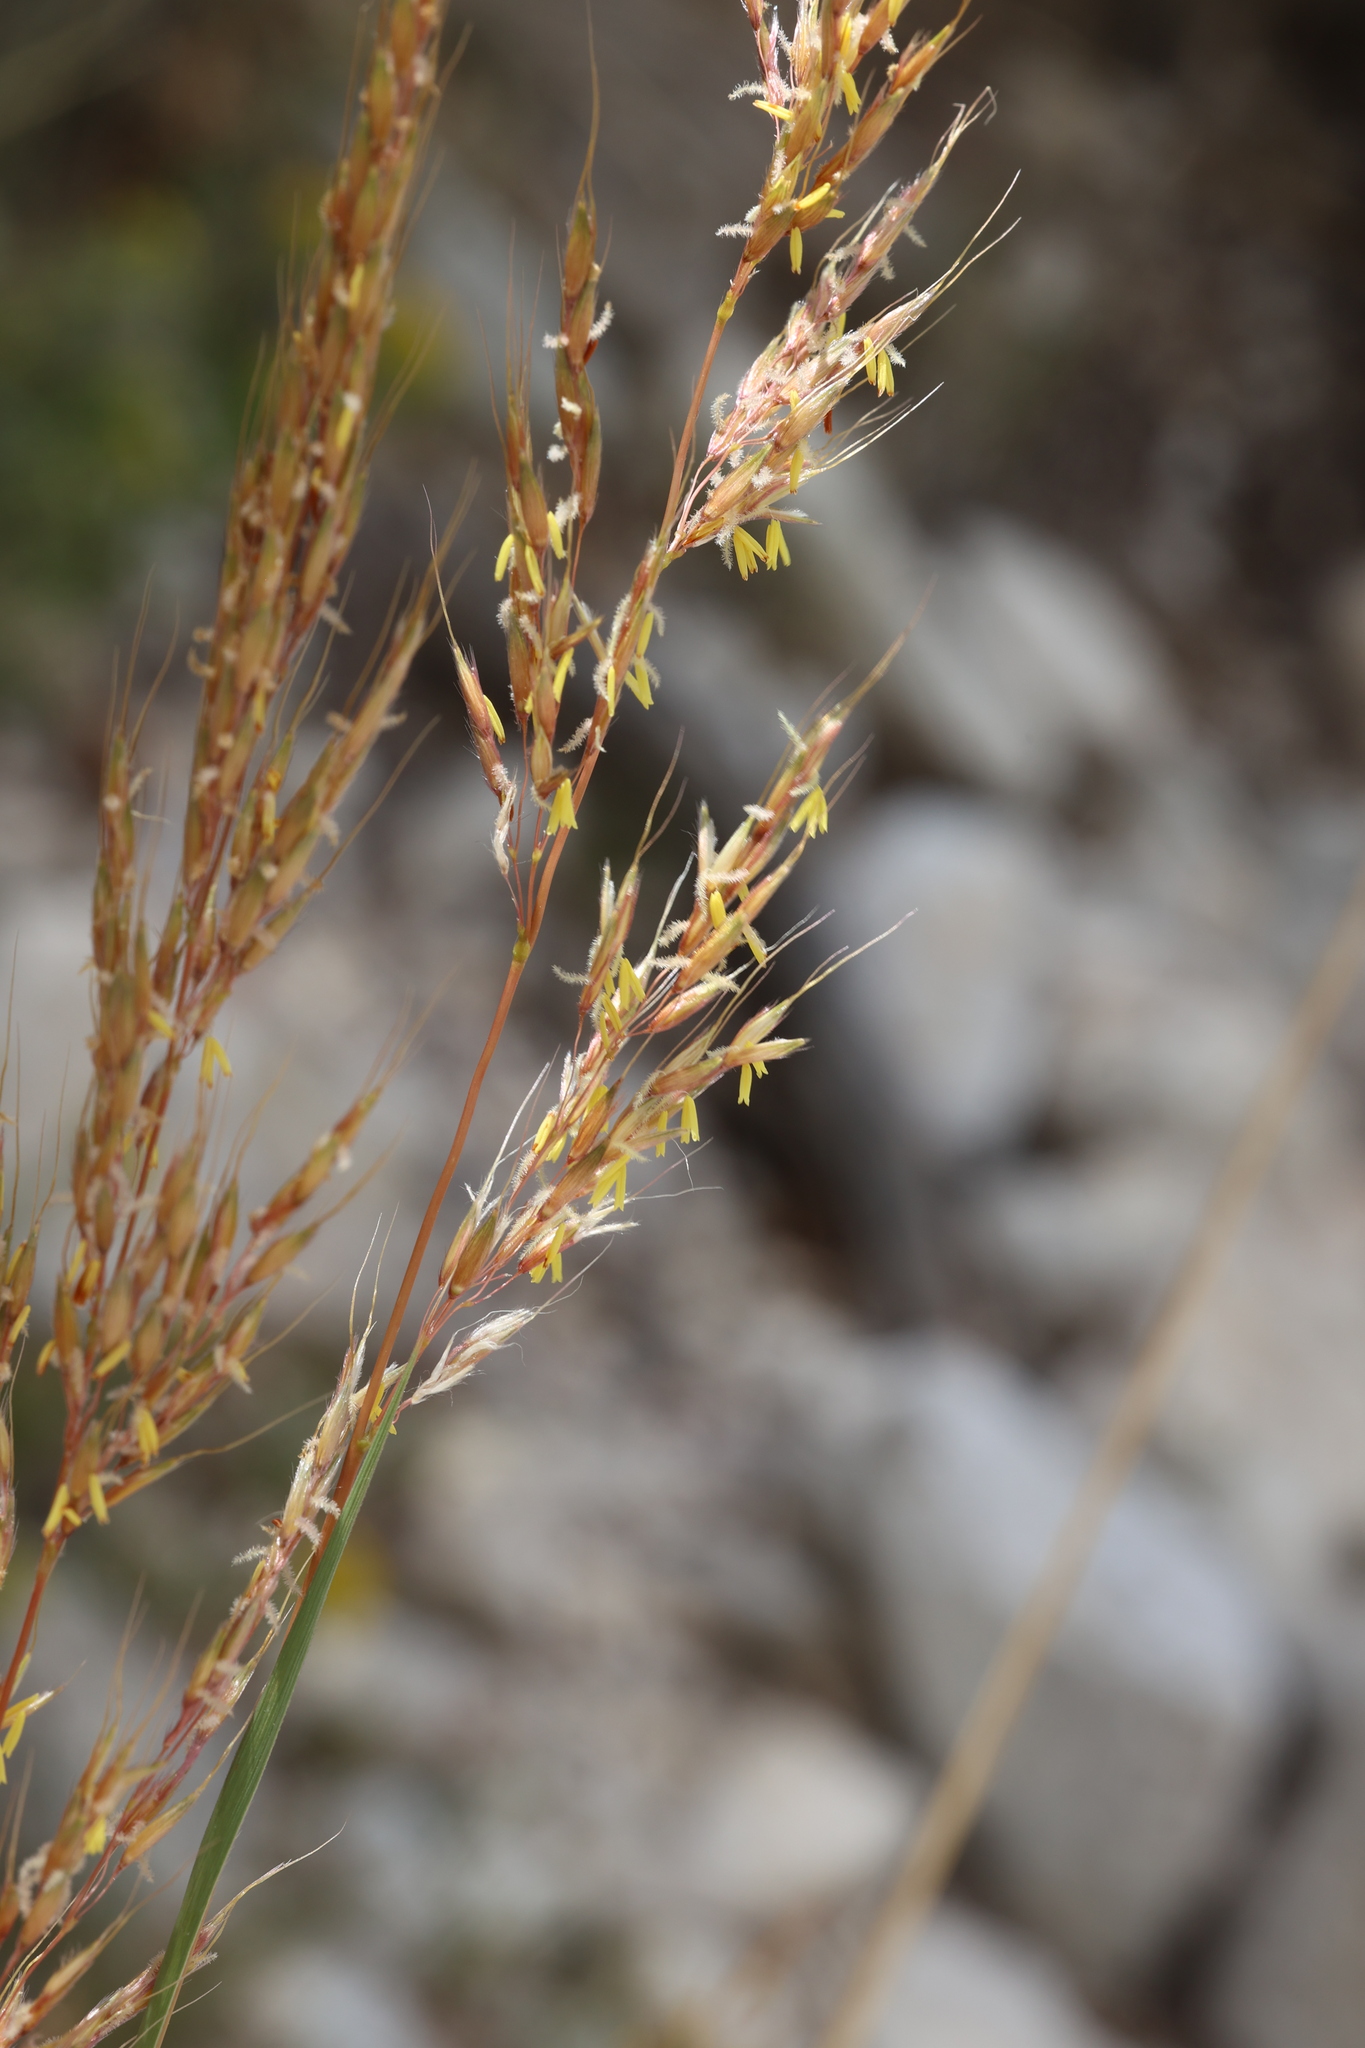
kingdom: Plantae
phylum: Tracheophyta
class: Liliopsida
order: Poales
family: Poaceae
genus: Sorghastrum
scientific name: Sorghastrum nutans
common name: Indian grass
